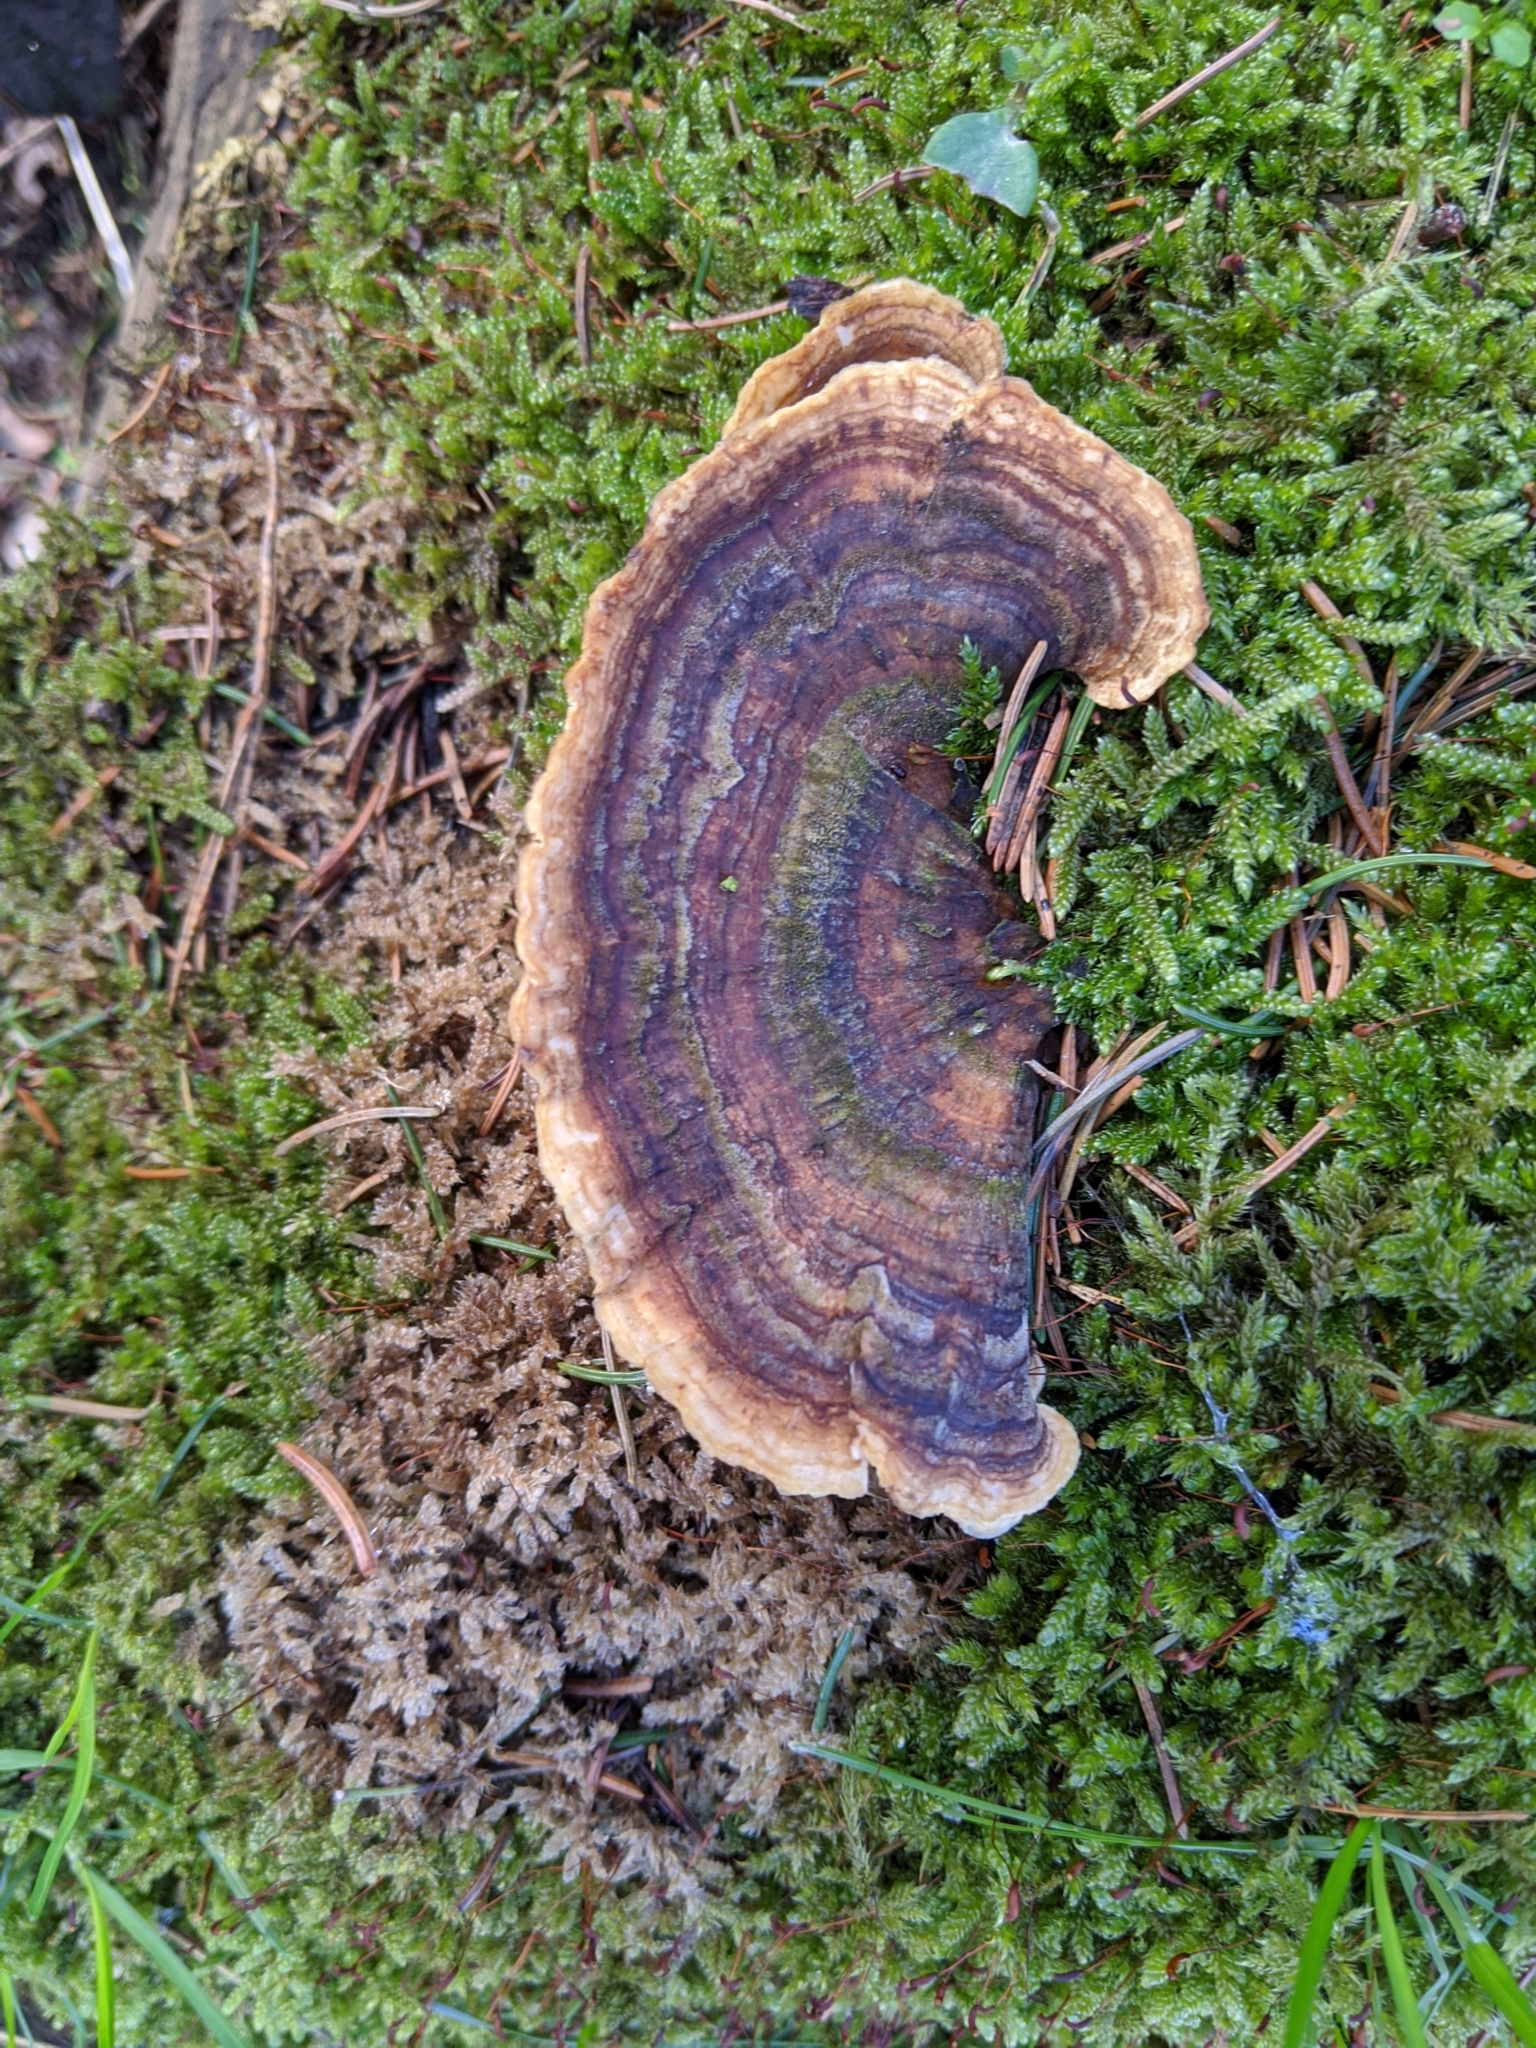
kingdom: Fungi
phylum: Basidiomycota
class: Agaricomycetes
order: Polyporales
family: Polyporaceae
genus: Trametes
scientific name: Trametes versicolor
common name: Turkeytail
